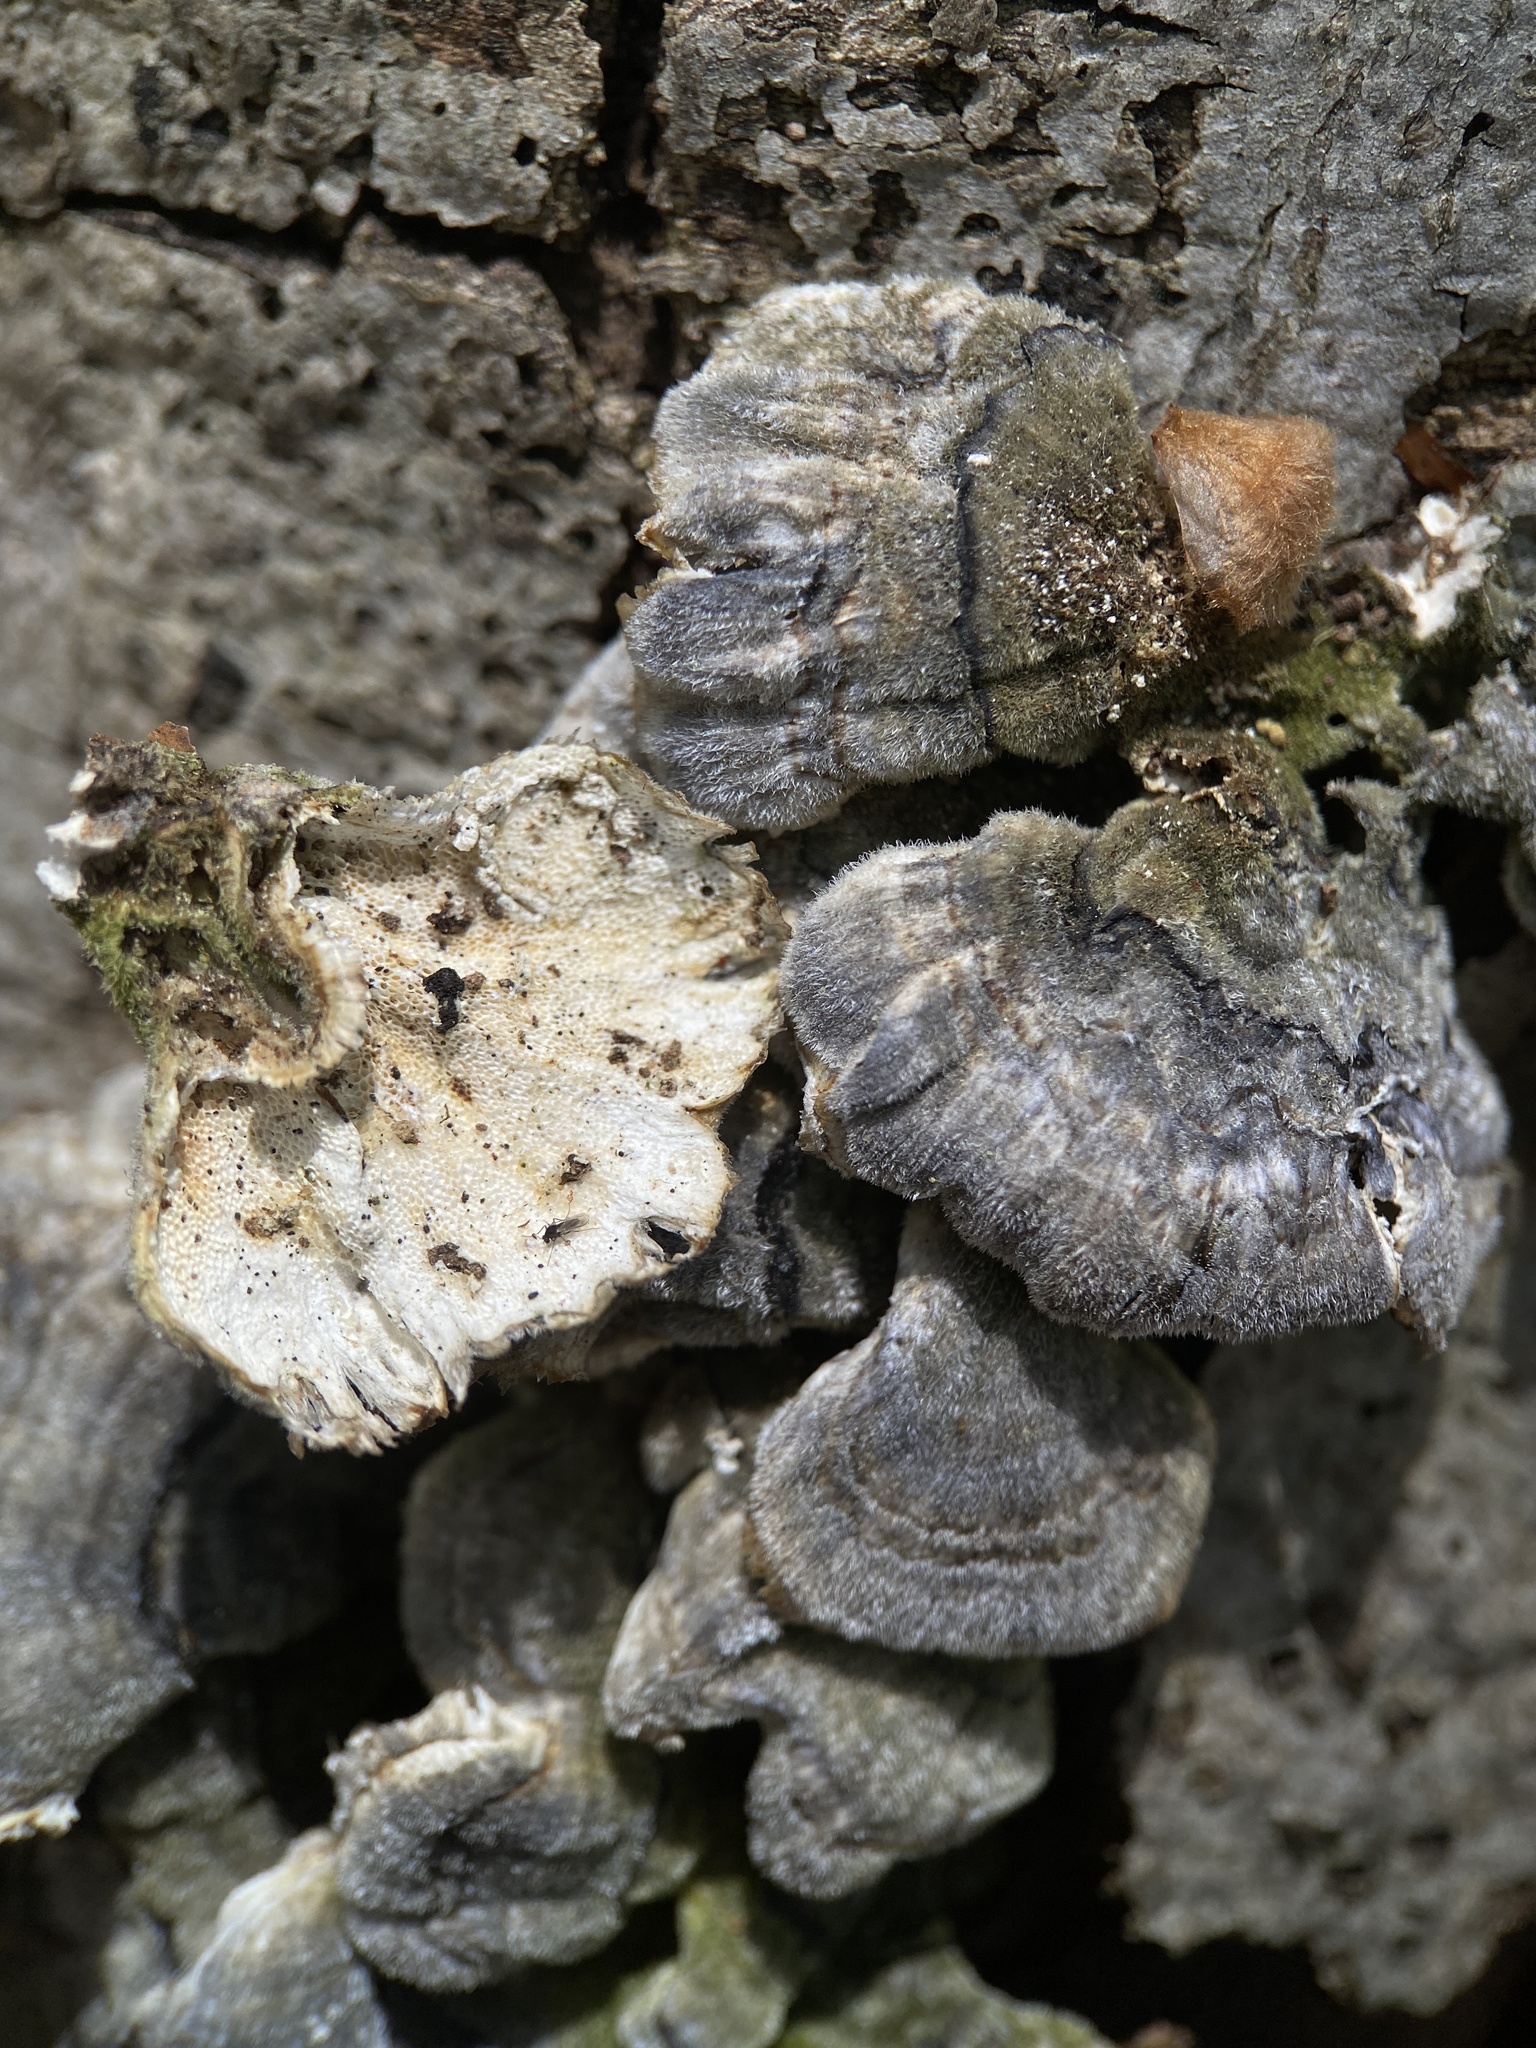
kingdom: Fungi
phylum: Basidiomycota
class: Agaricomycetes
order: Polyporales
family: Polyporaceae
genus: Trametes
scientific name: Trametes versicolor
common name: Turkeytail
